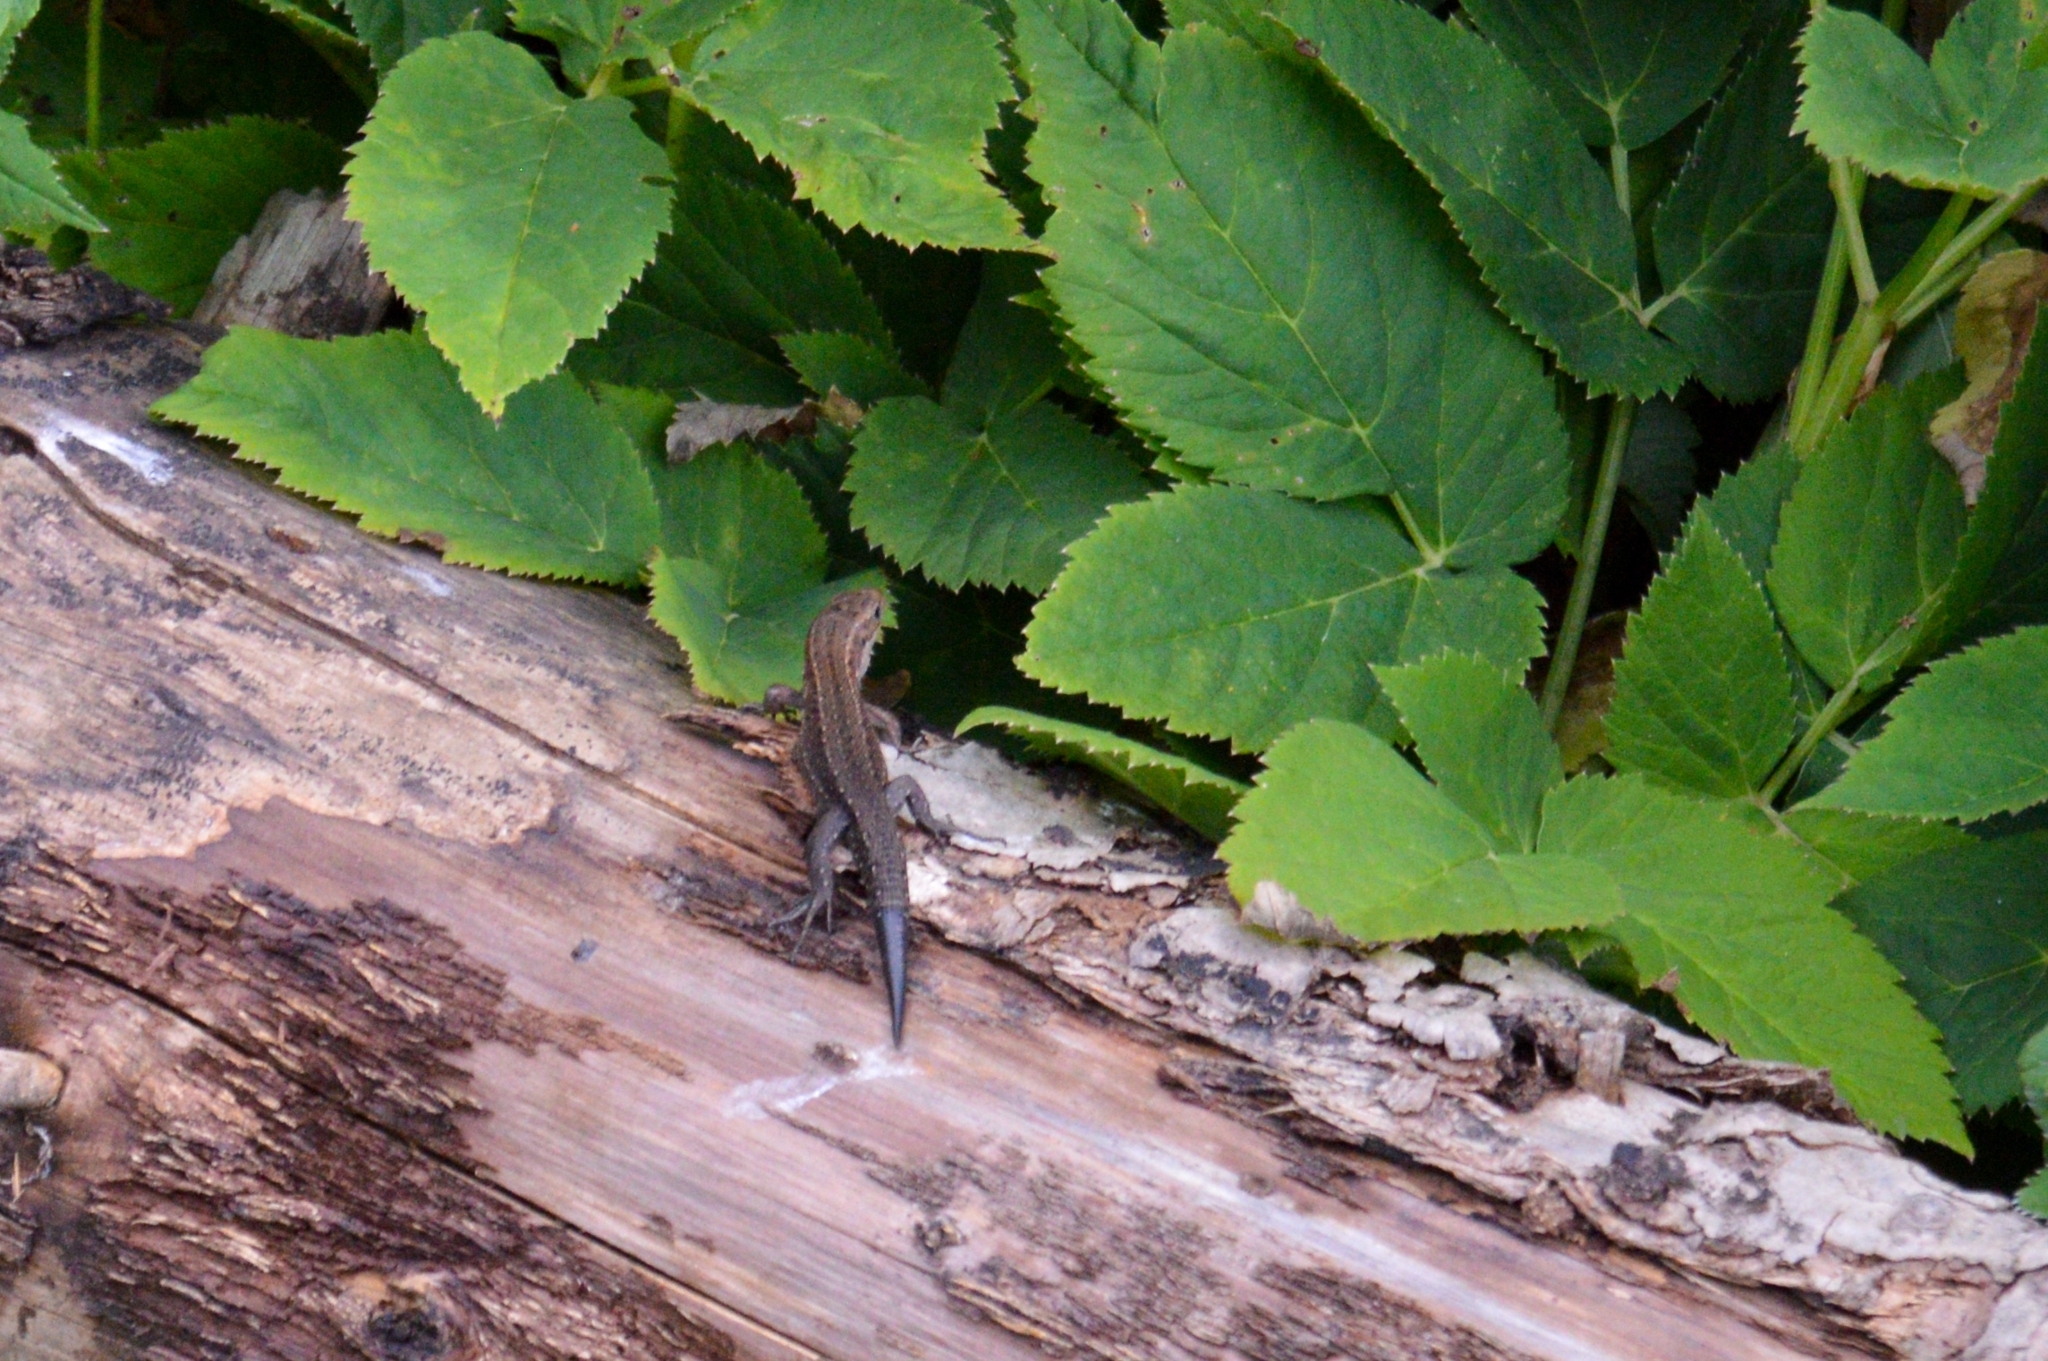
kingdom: Animalia
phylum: Chordata
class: Squamata
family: Lacertidae
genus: Zootoca
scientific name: Zootoca vivipara
